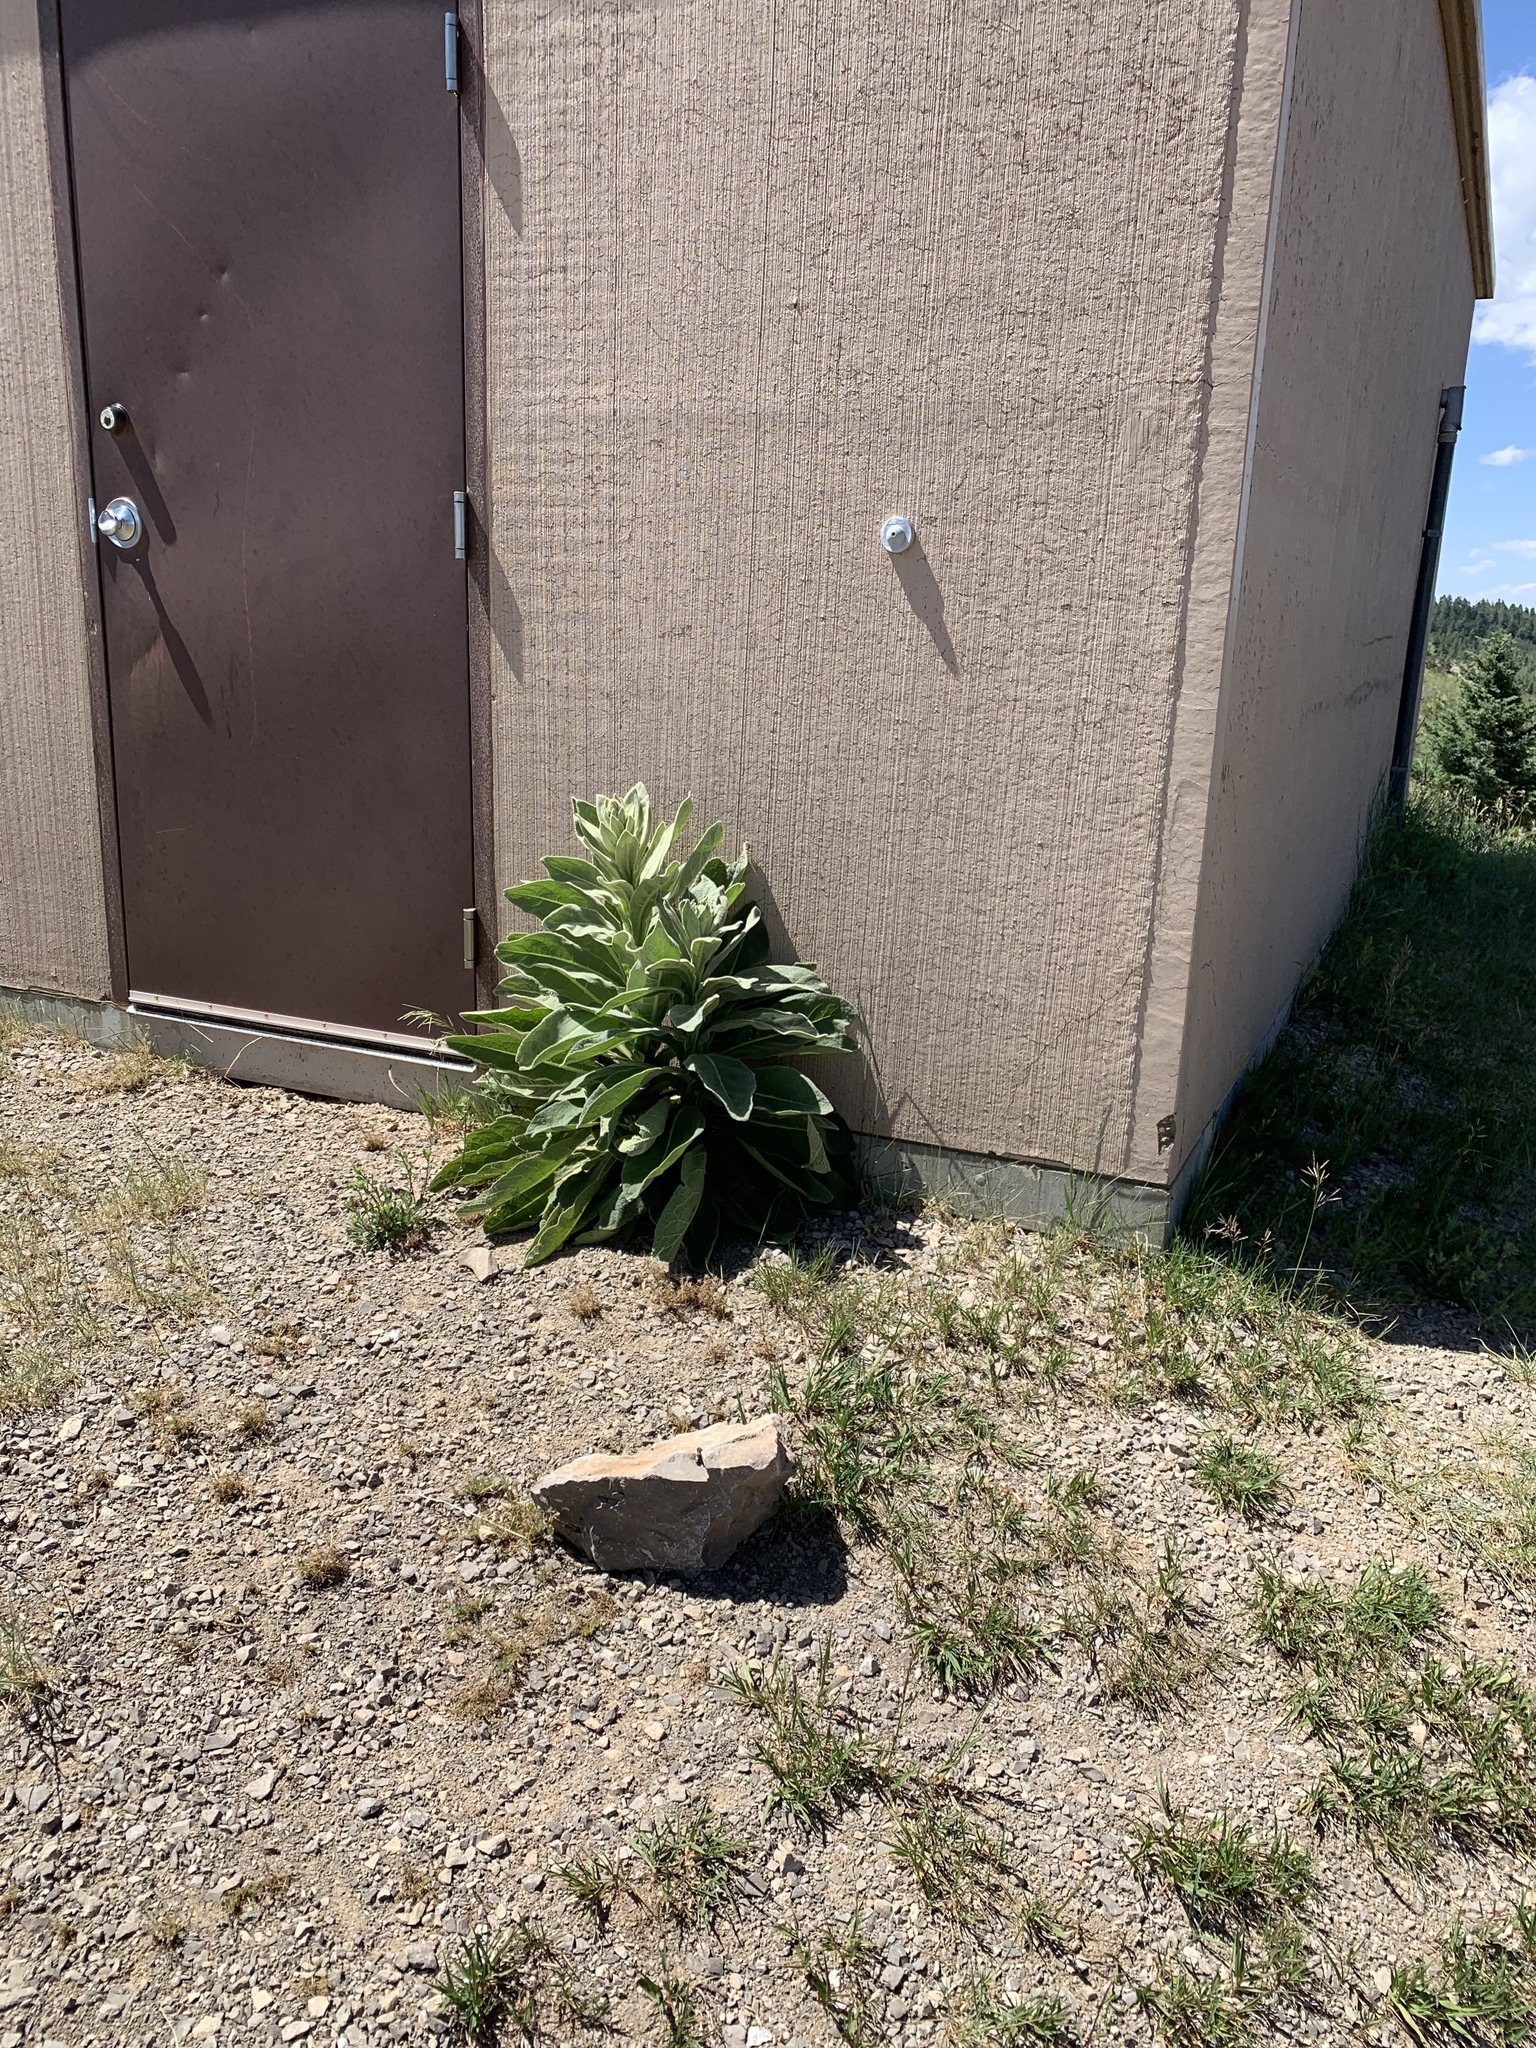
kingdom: Plantae
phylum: Tracheophyta
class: Magnoliopsida
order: Lamiales
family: Scrophulariaceae
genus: Verbascum
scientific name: Verbascum thapsus
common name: Common mullein
